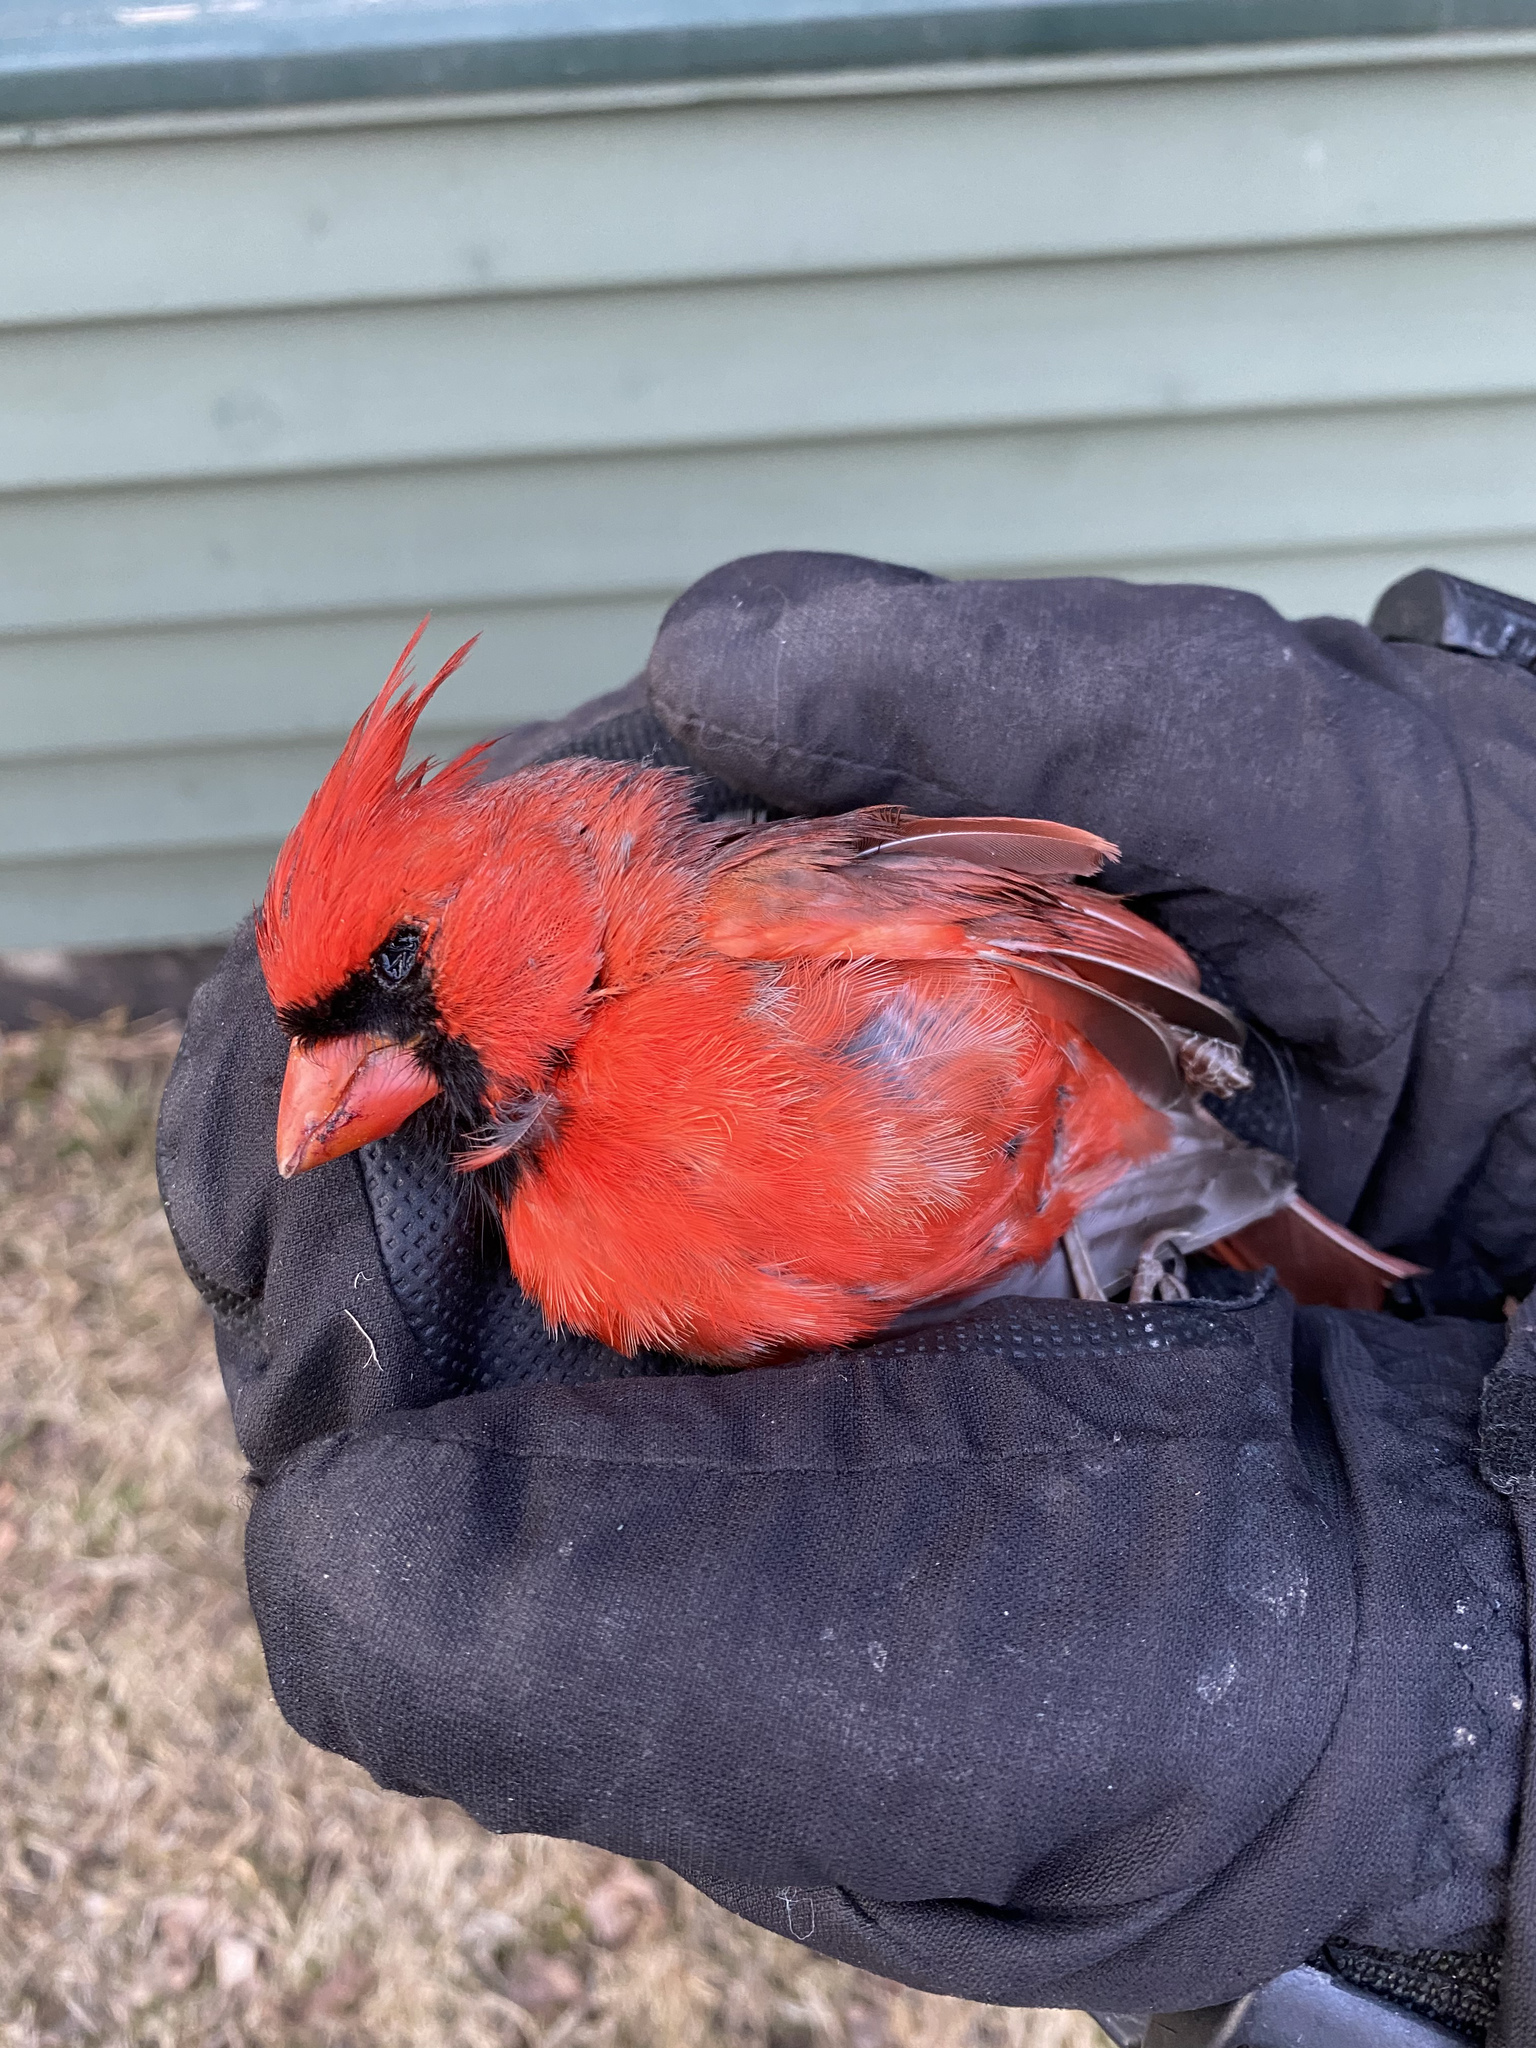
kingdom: Animalia
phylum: Chordata
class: Aves
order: Passeriformes
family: Cardinalidae
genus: Cardinalis
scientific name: Cardinalis cardinalis
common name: Northern cardinal
